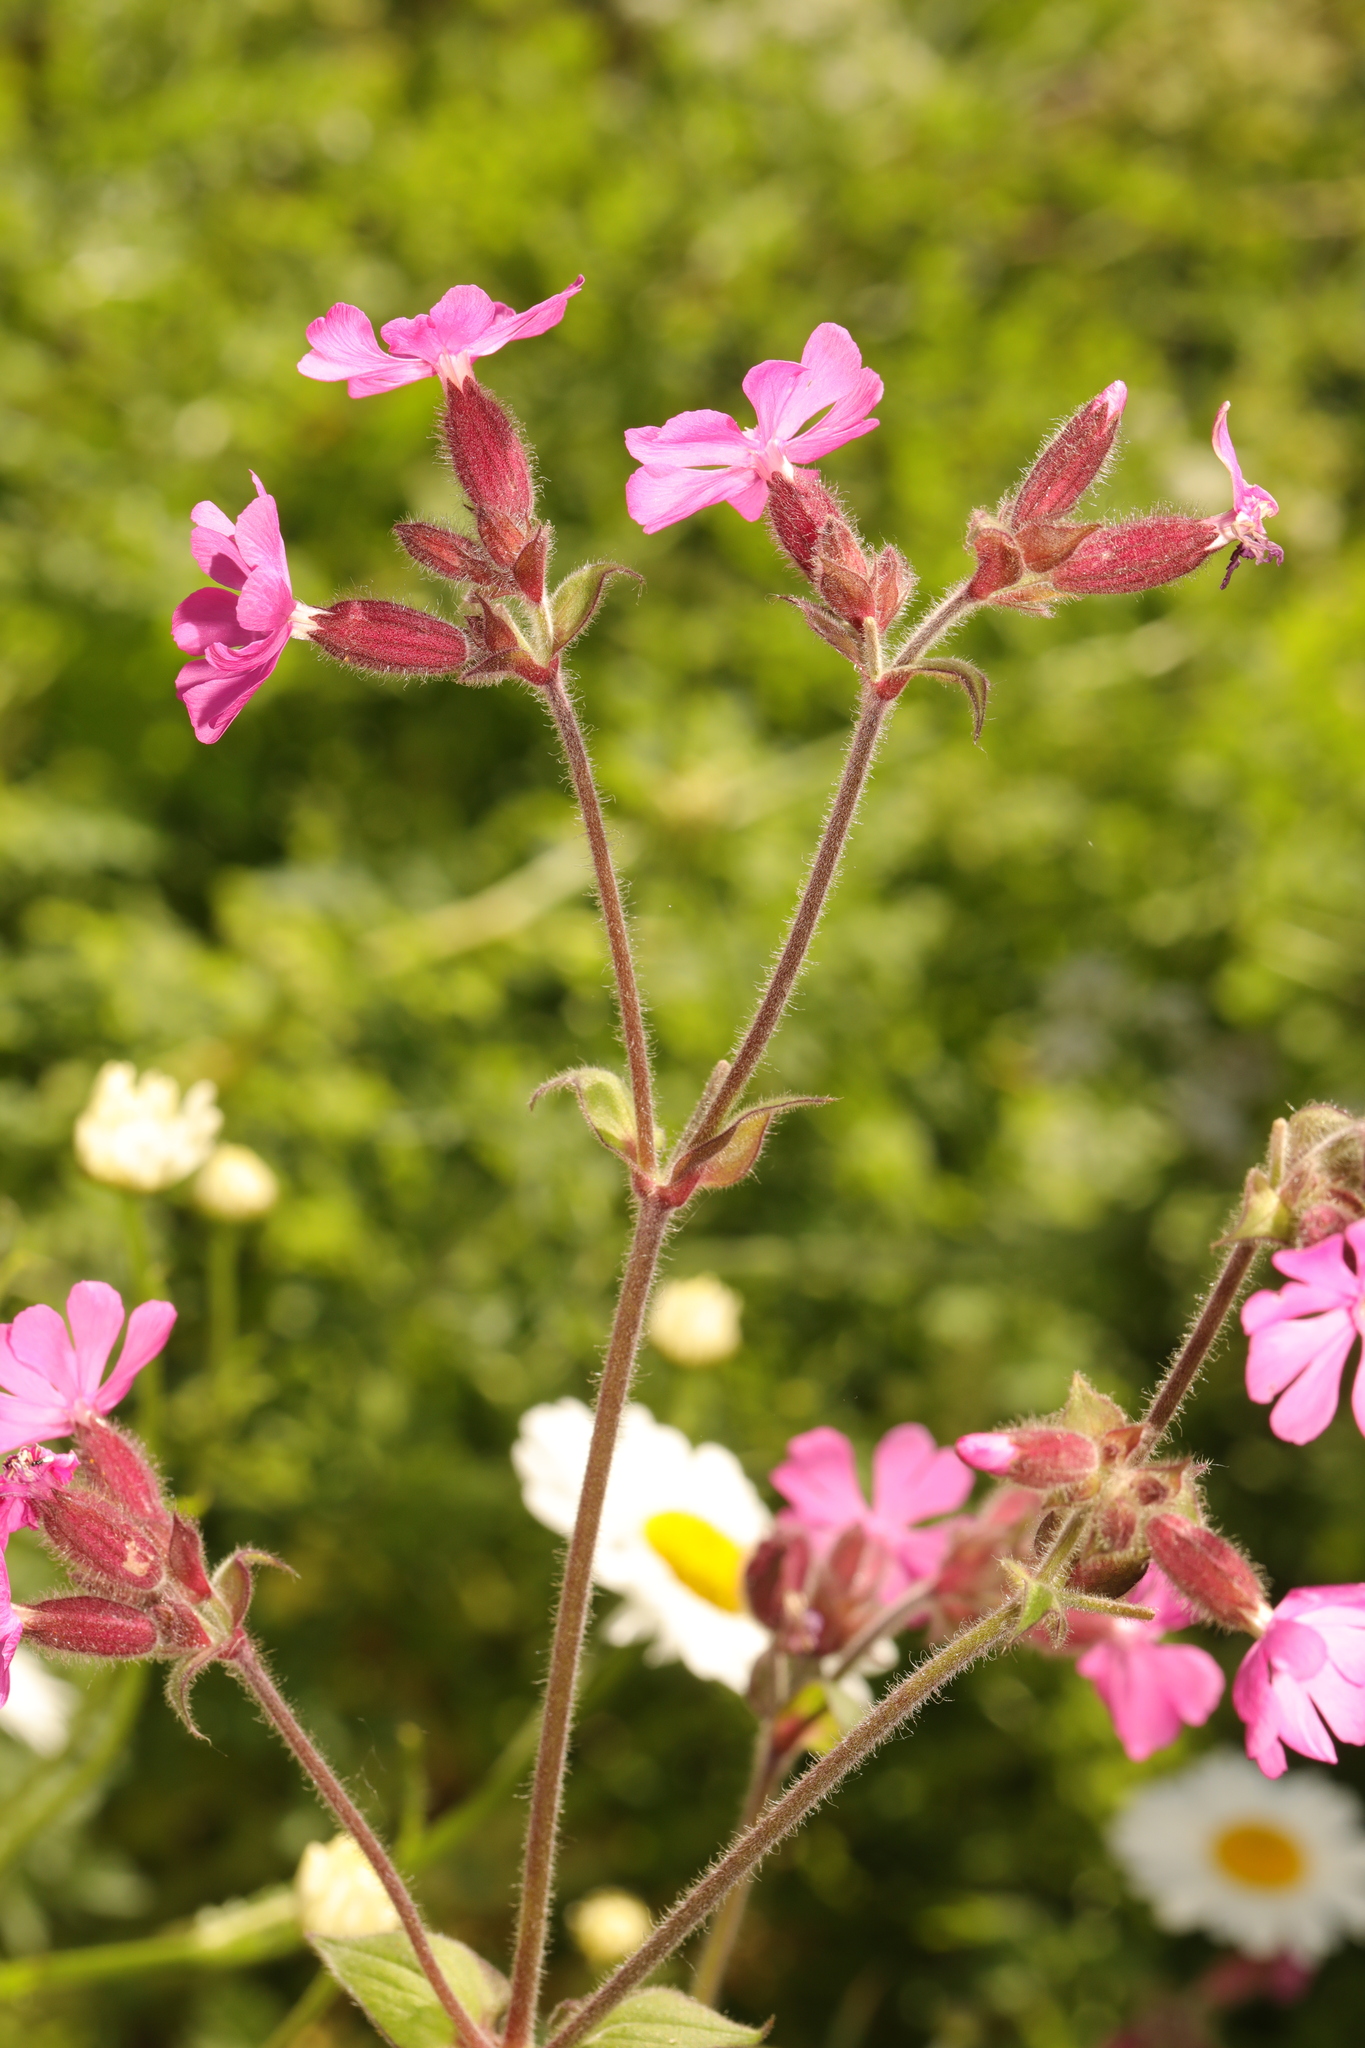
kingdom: Plantae
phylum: Tracheophyta
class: Magnoliopsida
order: Caryophyllales
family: Caryophyllaceae
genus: Silene
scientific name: Silene dioica
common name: Red campion
